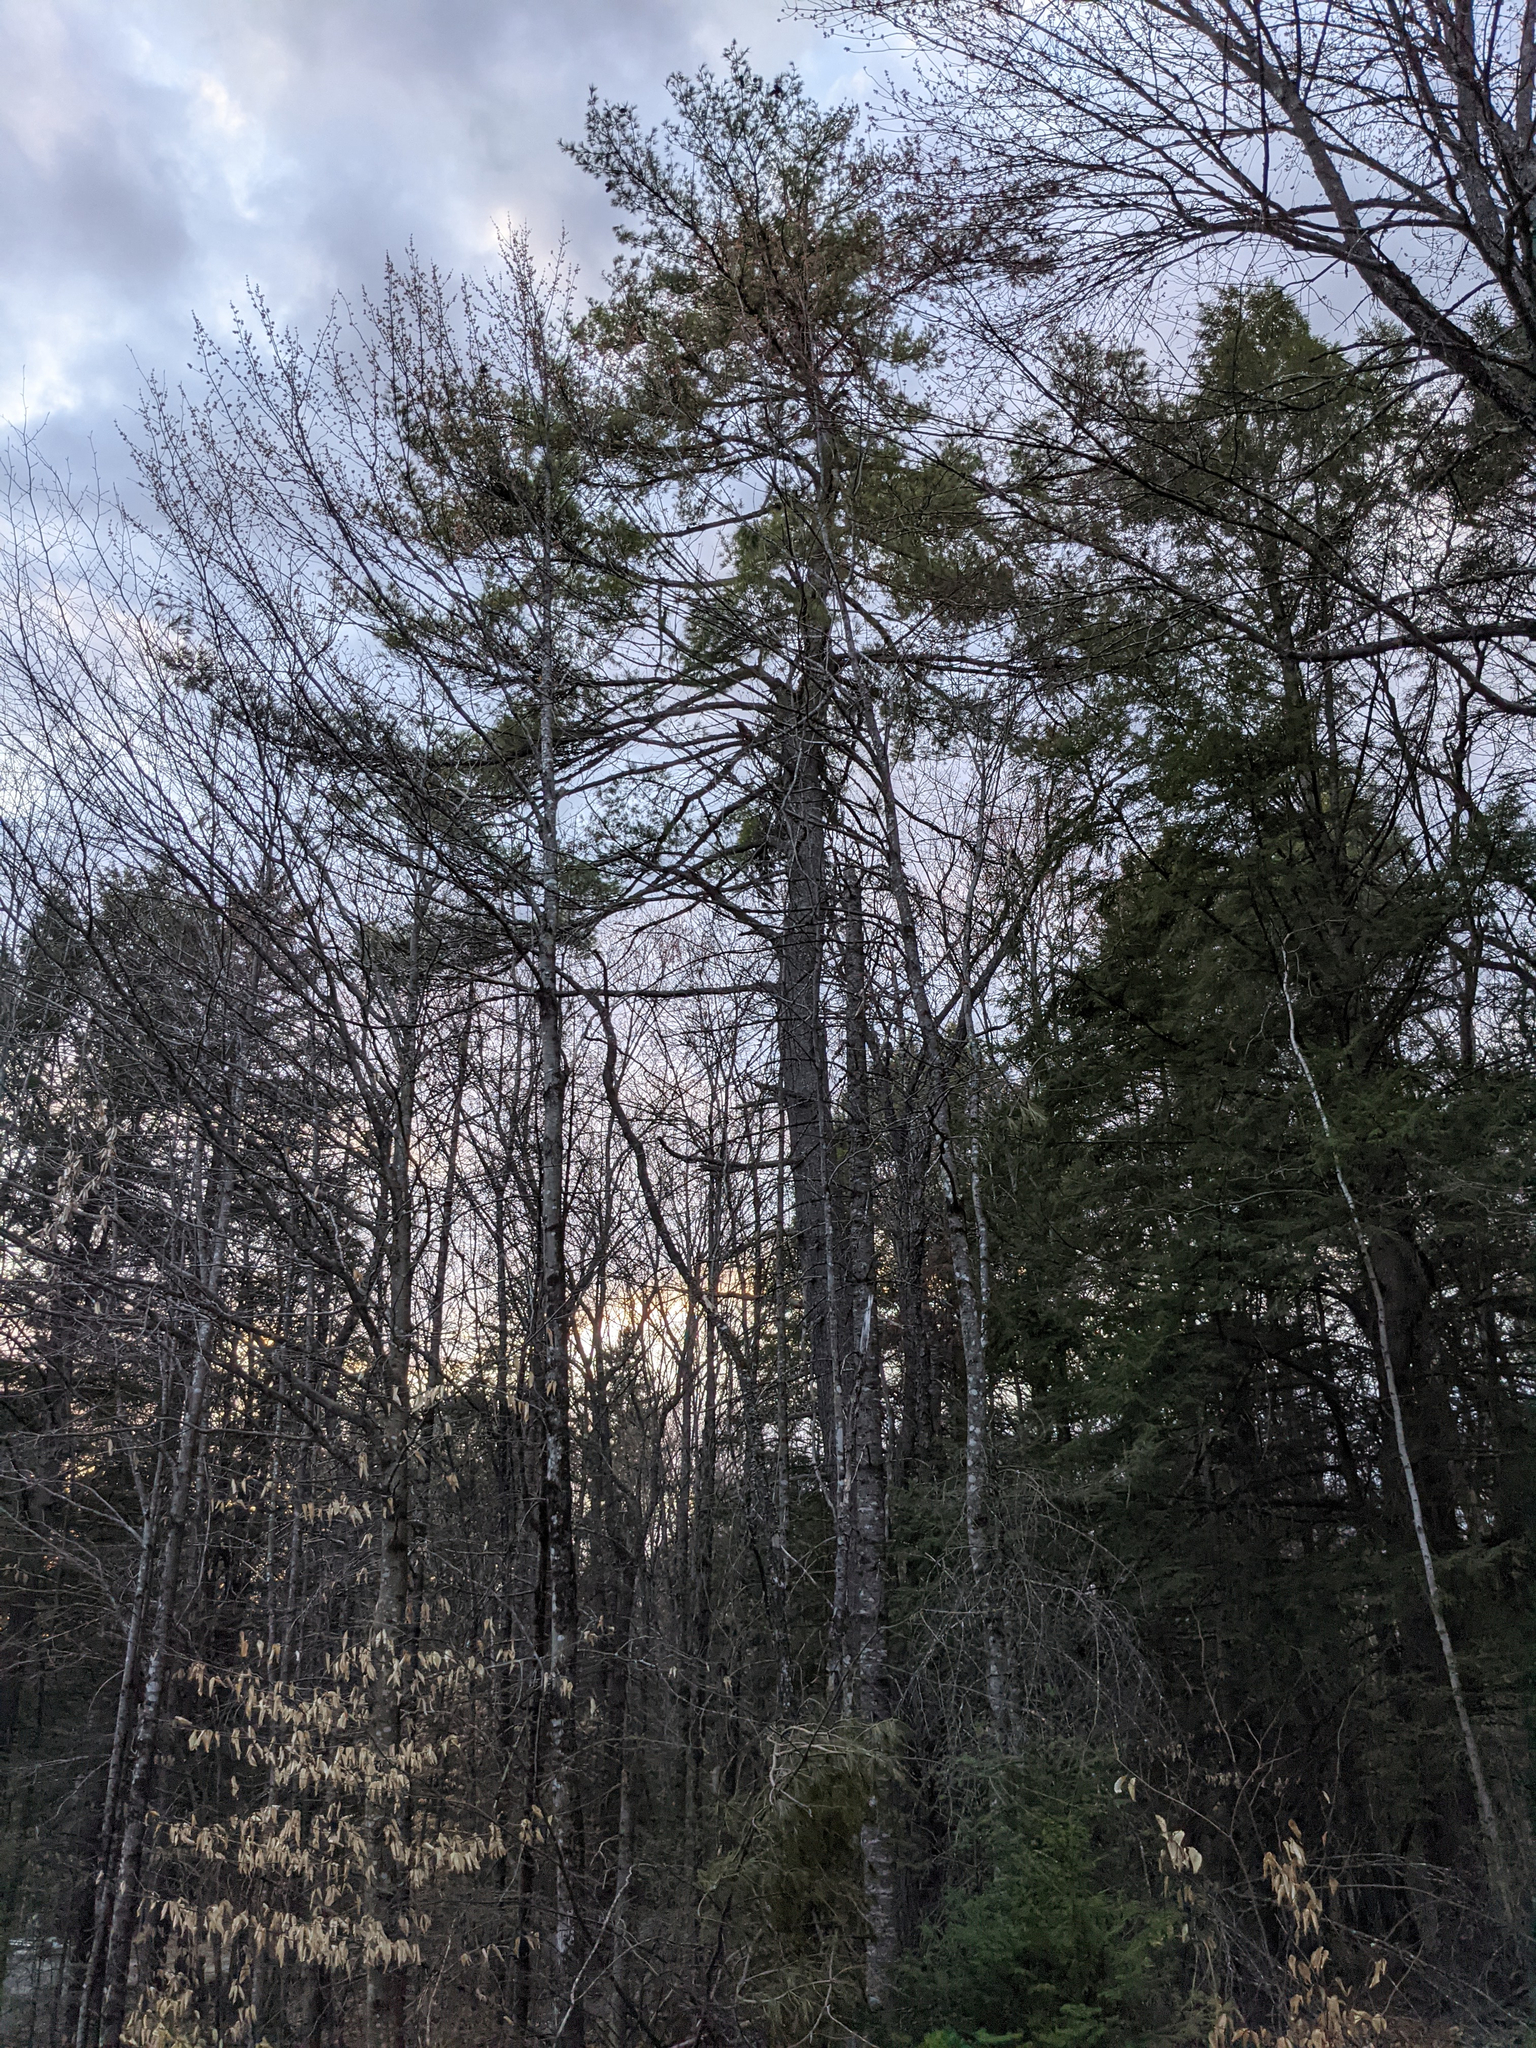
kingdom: Plantae
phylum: Tracheophyta
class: Pinopsida
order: Pinales
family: Pinaceae
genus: Pinus
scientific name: Pinus strobus
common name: Weymouth pine
